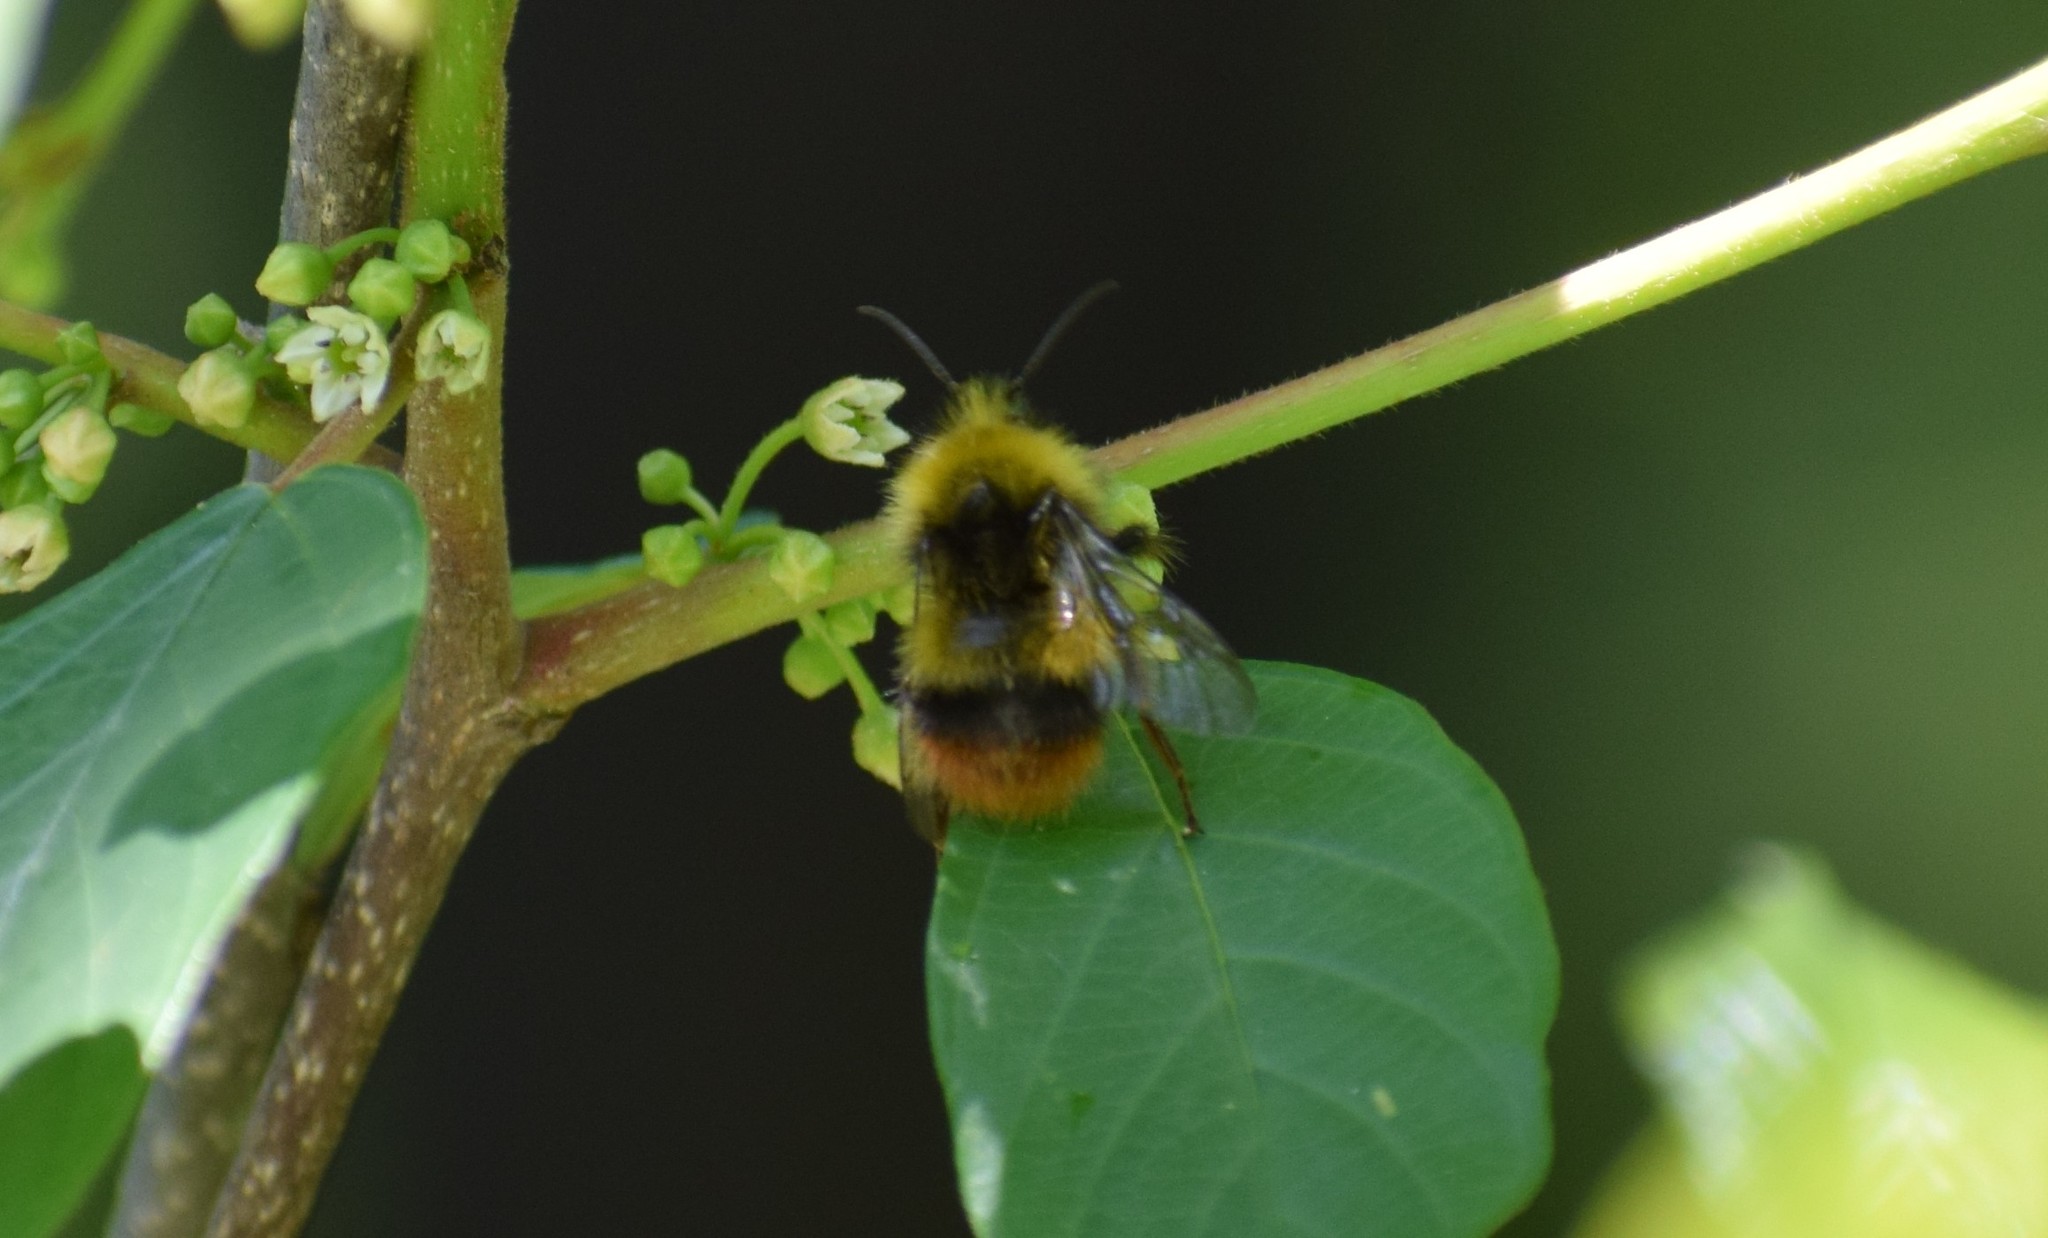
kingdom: Animalia
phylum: Arthropoda
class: Insecta
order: Hymenoptera
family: Apidae
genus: Bombus
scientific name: Bombus pratorum
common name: Early humble-bee
